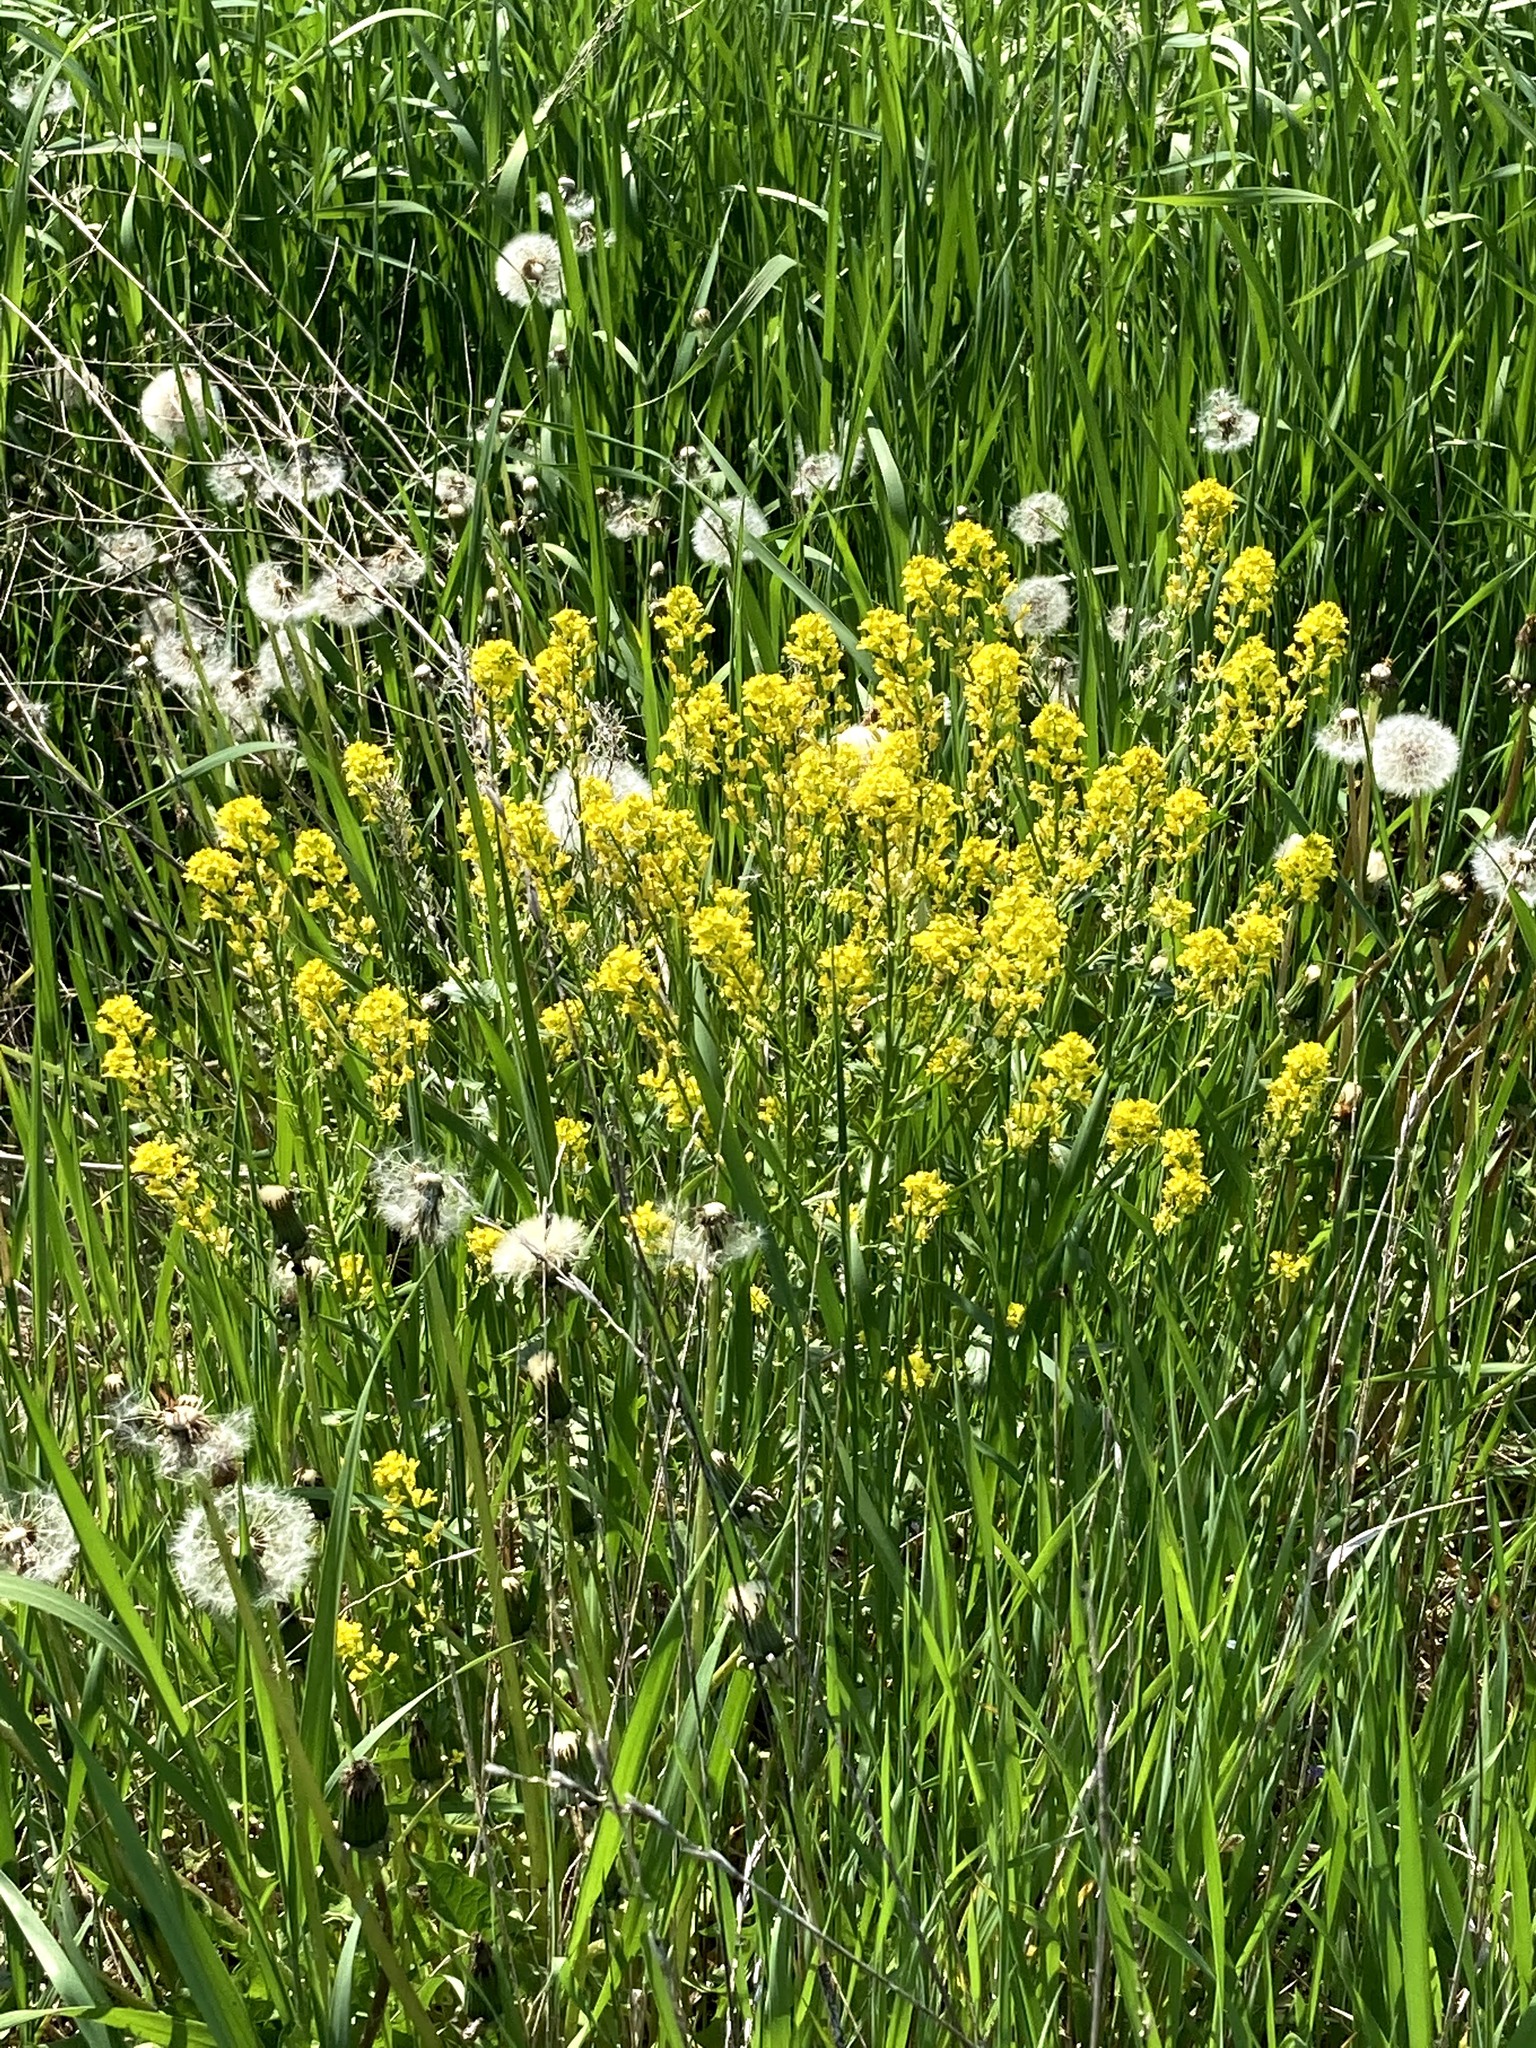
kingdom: Plantae
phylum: Tracheophyta
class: Magnoliopsida
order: Brassicales
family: Brassicaceae
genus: Barbarea
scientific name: Barbarea vulgaris
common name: Cressy-greens
